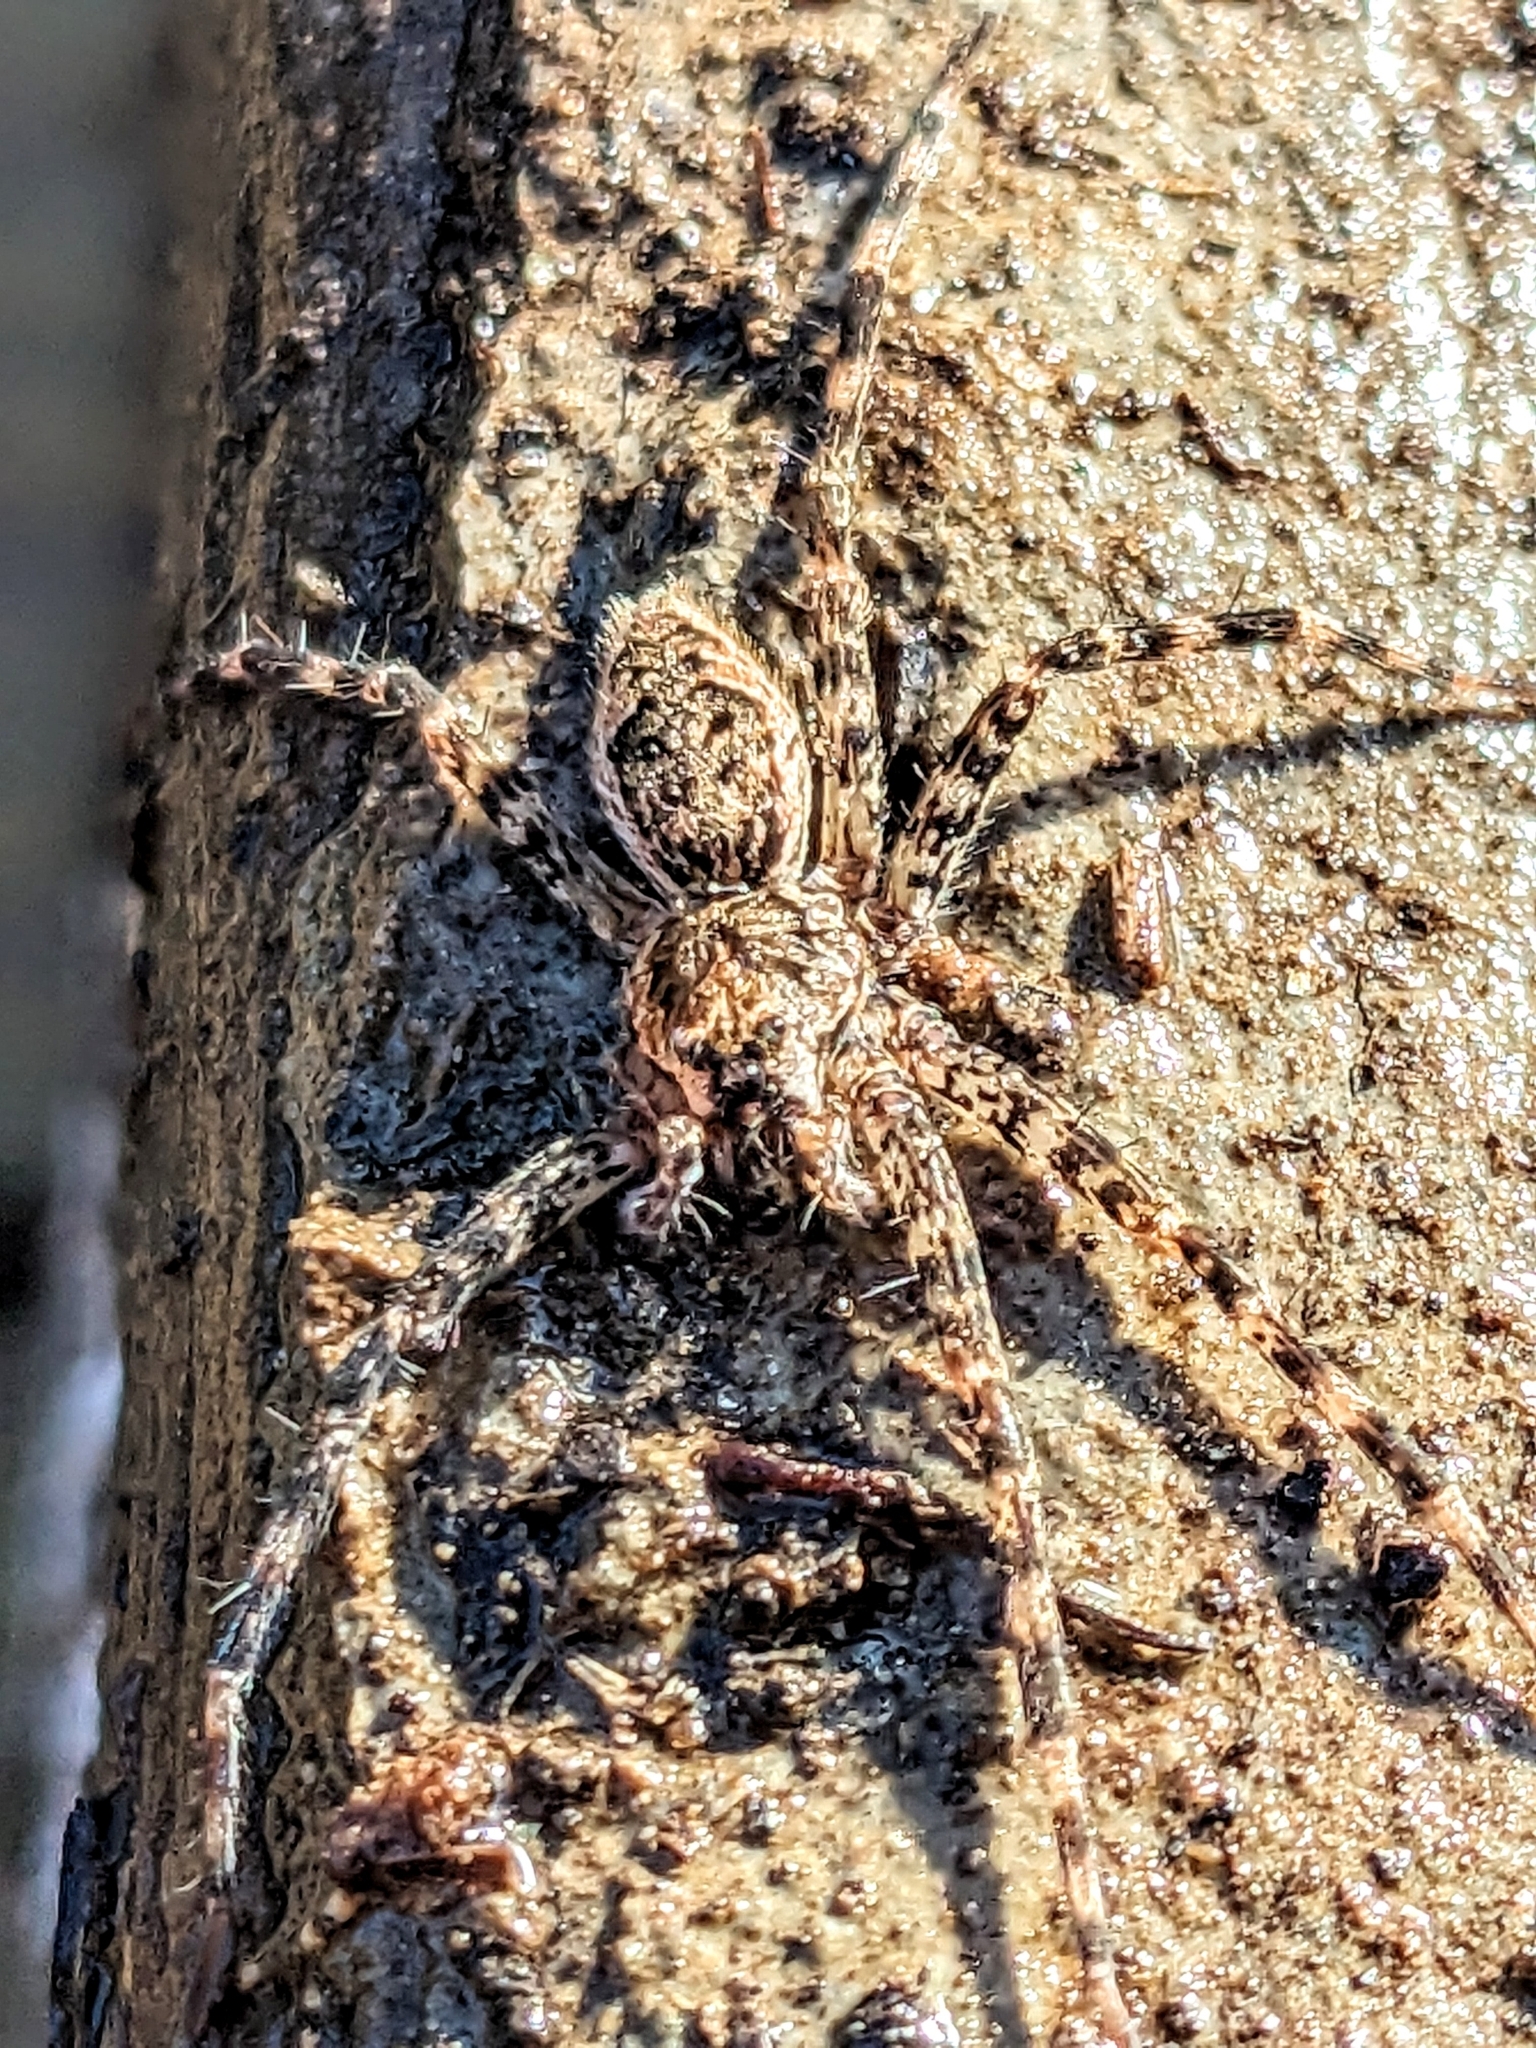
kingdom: Animalia
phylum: Arthropoda
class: Arachnida
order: Araneae
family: Pisauridae
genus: Dolomedes
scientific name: Dolomedes tenebrosus
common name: Dark fishing spider
